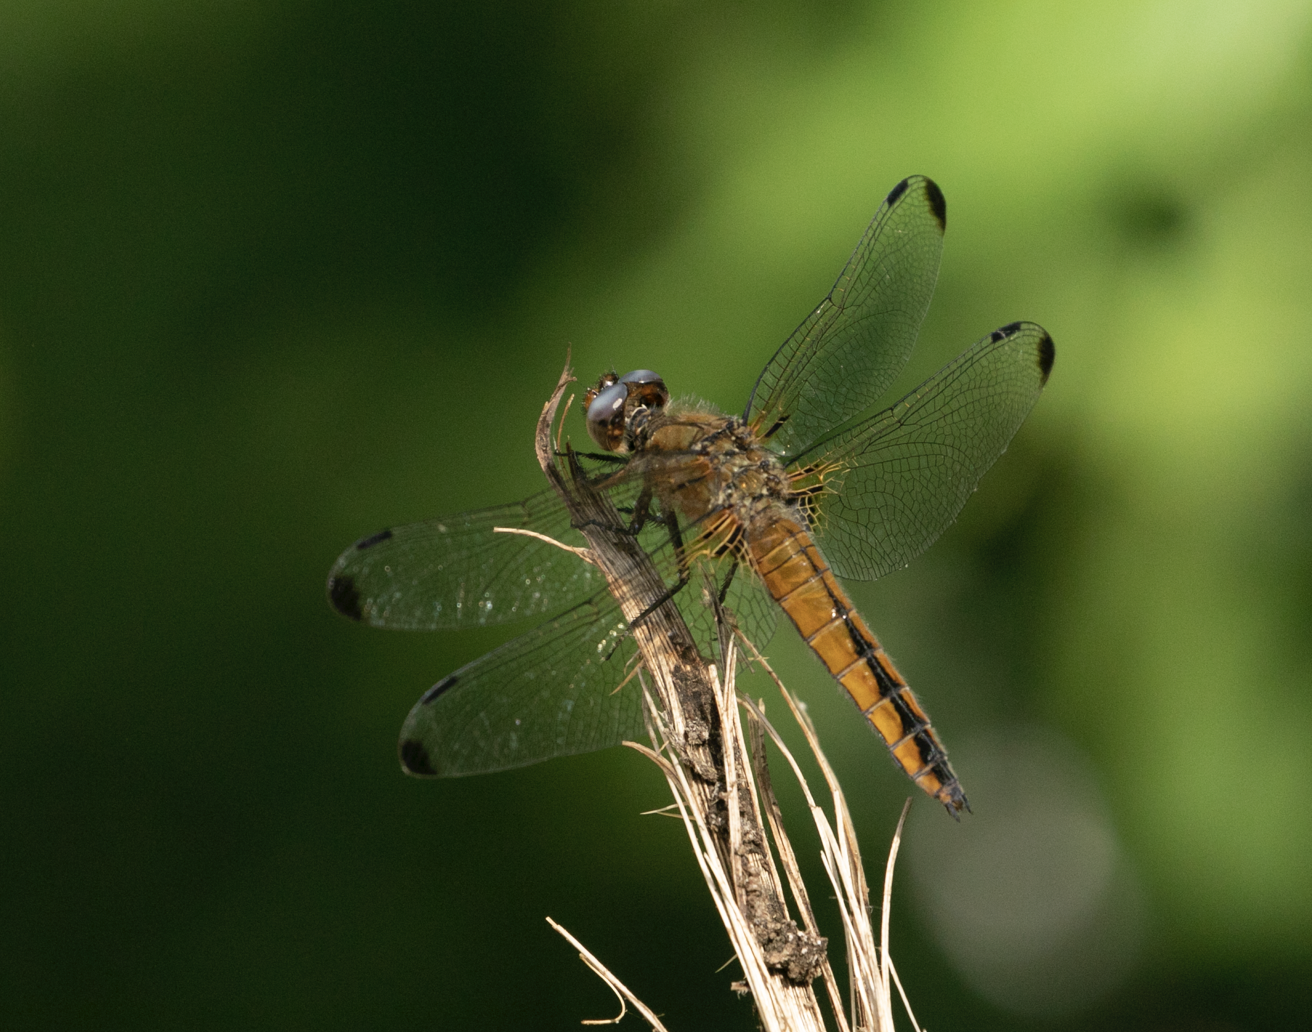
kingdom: Animalia
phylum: Arthropoda
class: Insecta
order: Odonata
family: Libellulidae
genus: Libellula
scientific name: Libellula fulva
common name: Blue chaser
